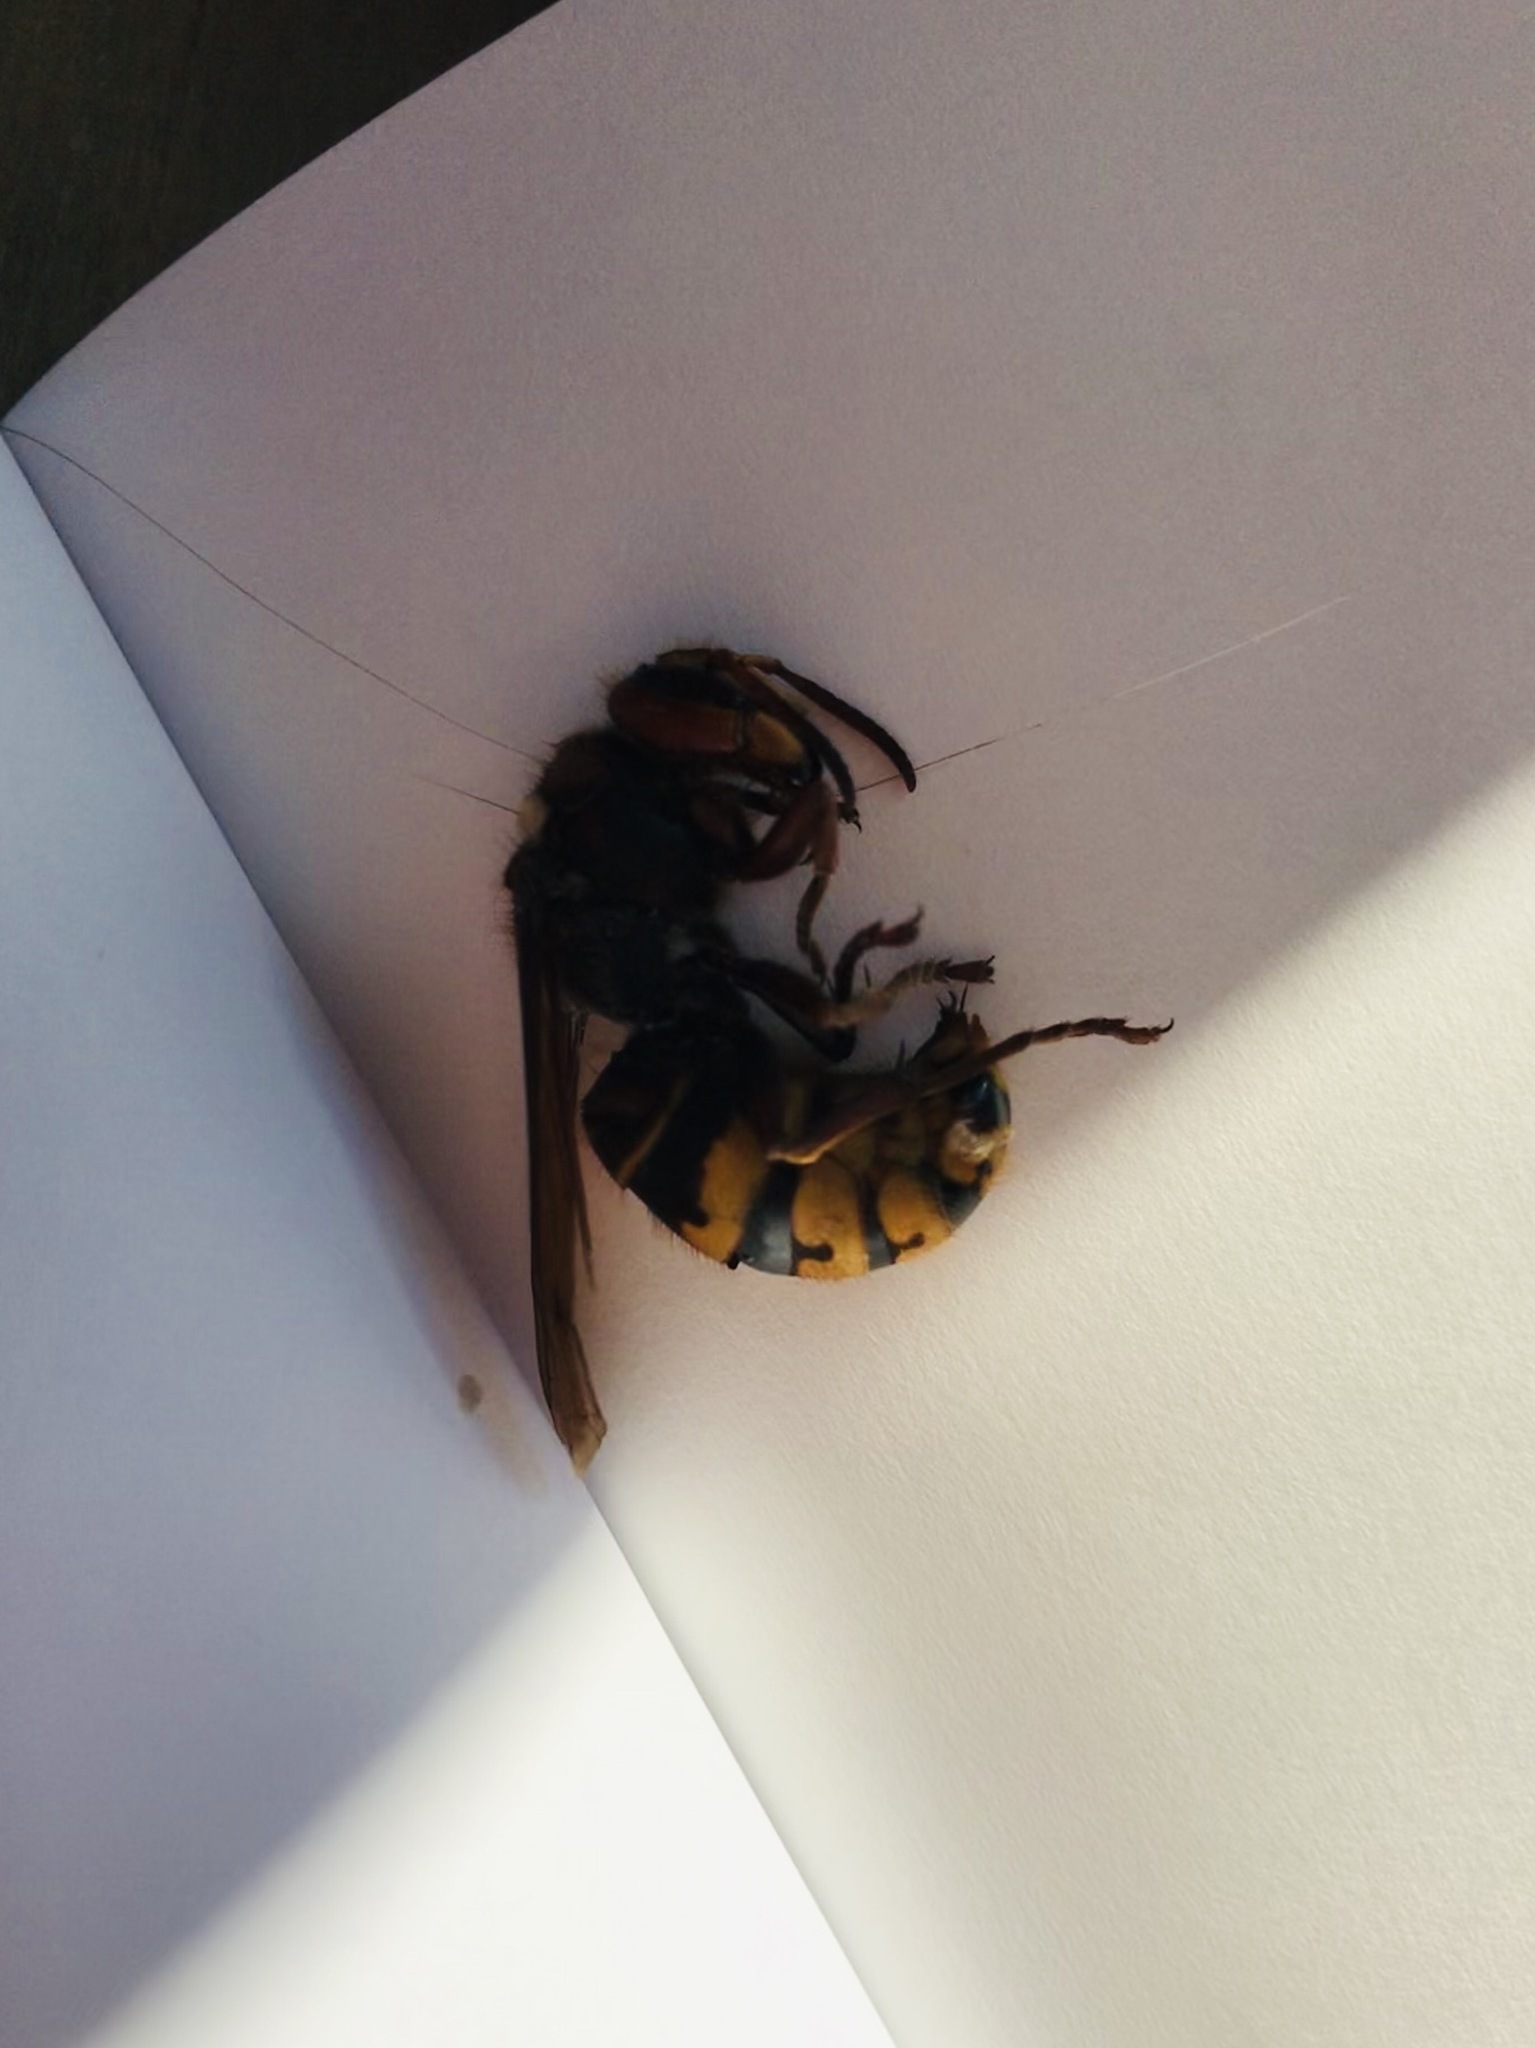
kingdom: Animalia
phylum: Arthropoda
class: Insecta
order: Hymenoptera
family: Vespidae
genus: Vespa
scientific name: Vespa crabro
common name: Hornet
